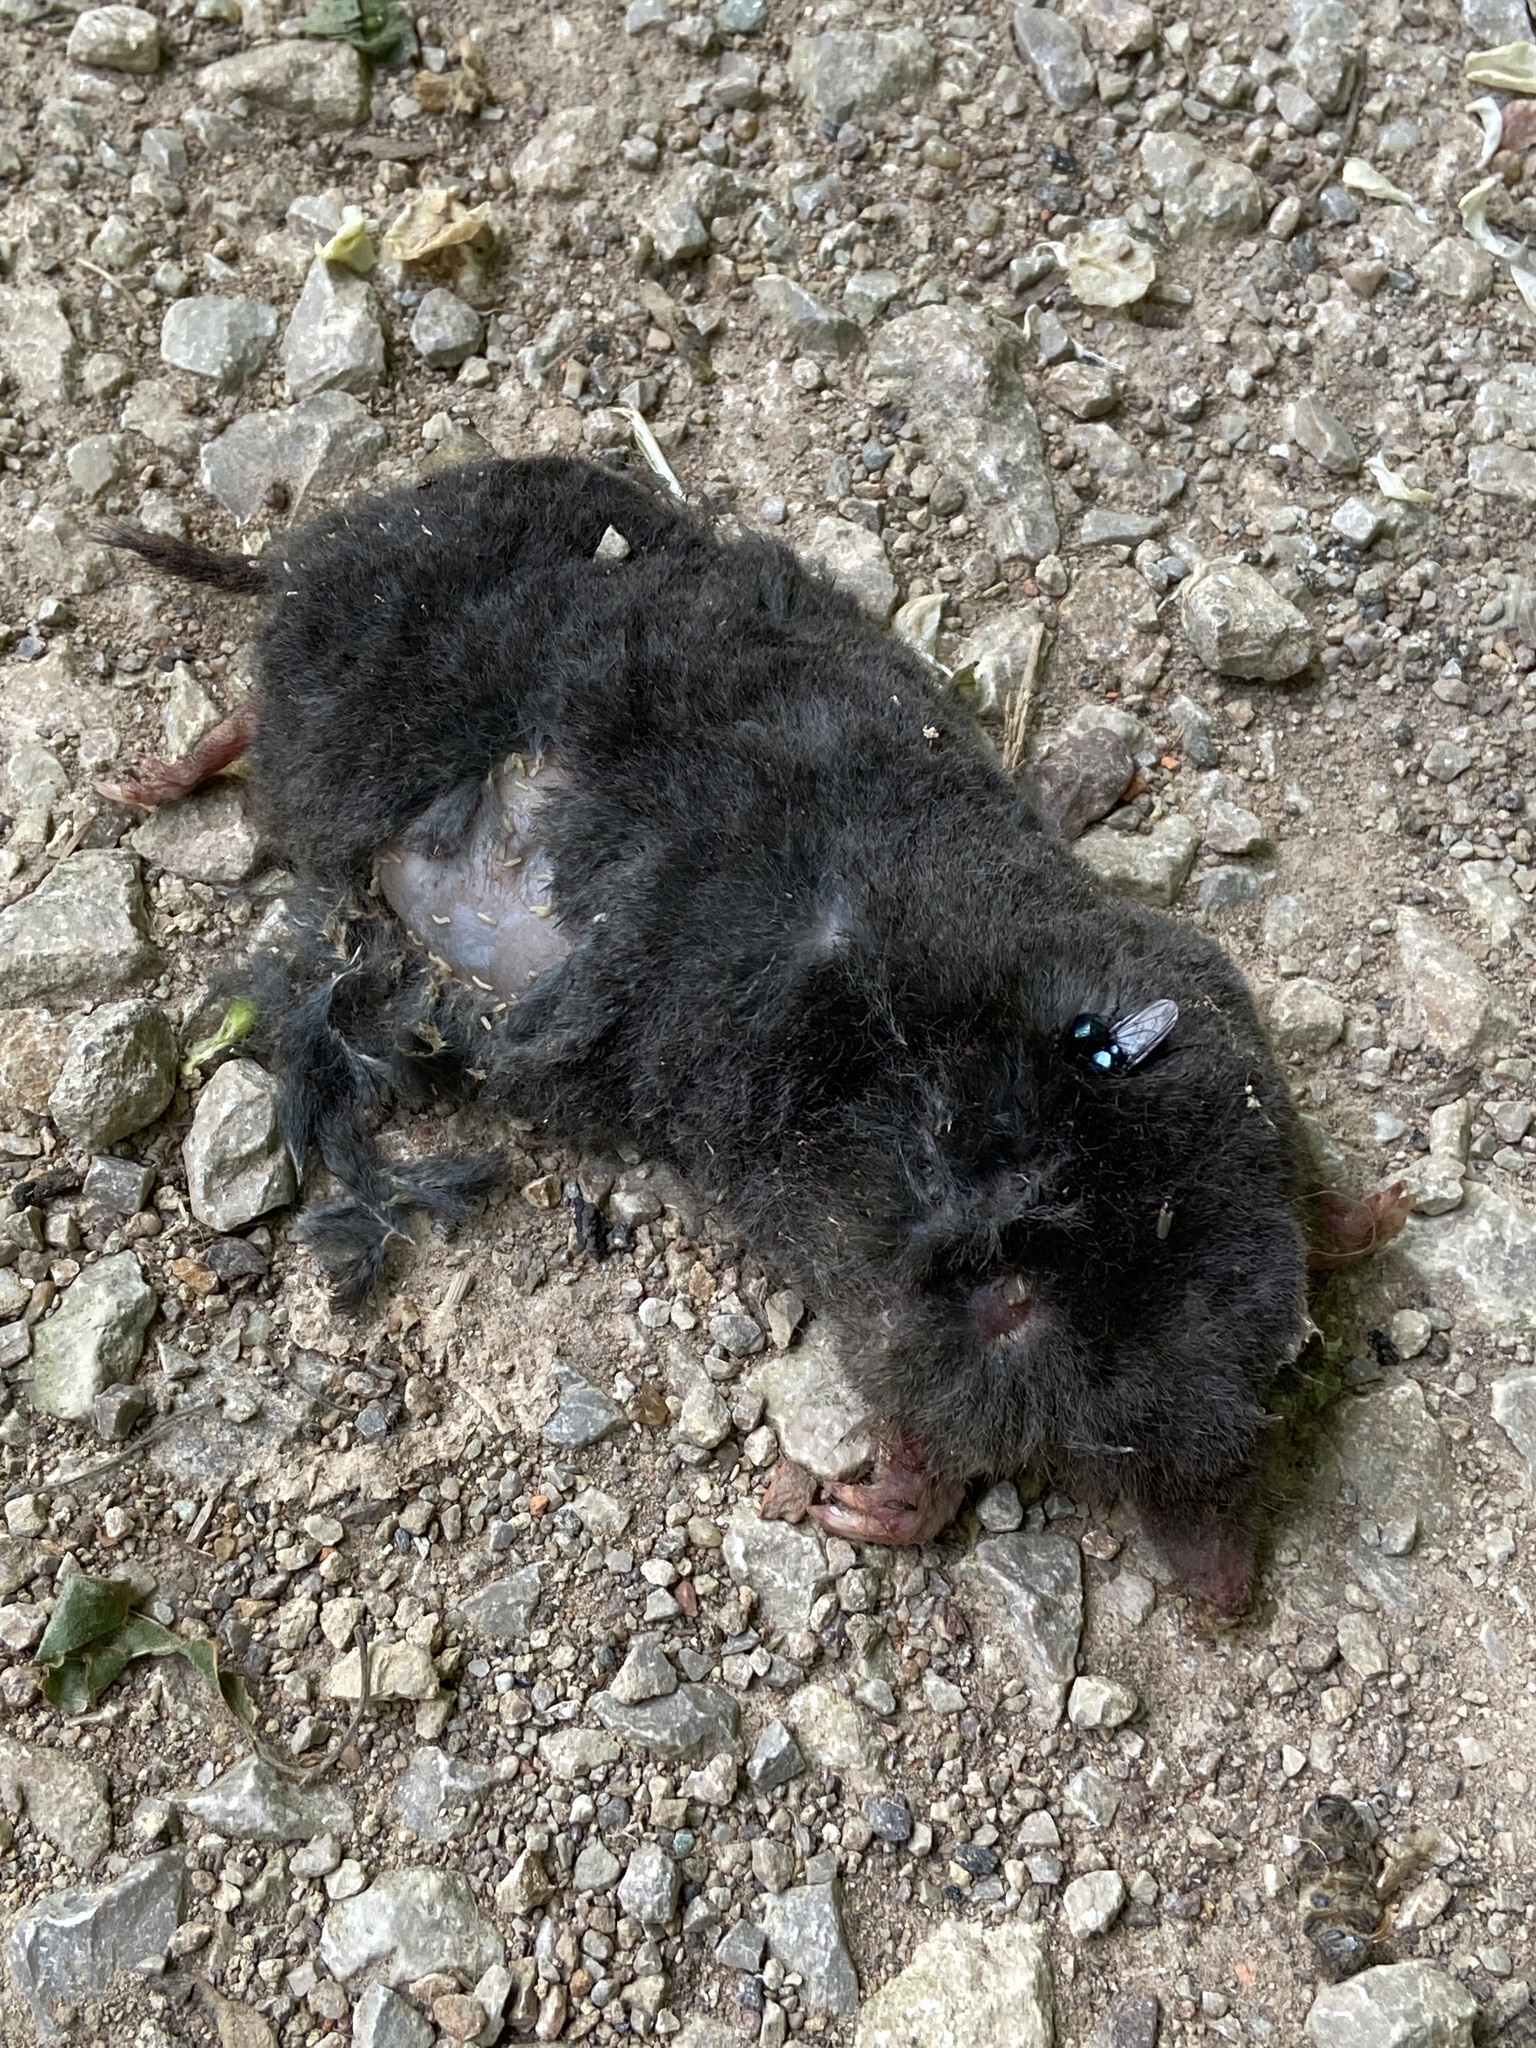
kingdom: Animalia
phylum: Chordata
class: Mammalia
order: Soricomorpha
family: Talpidae
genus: Talpa
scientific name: Talpa europaea
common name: European mole
